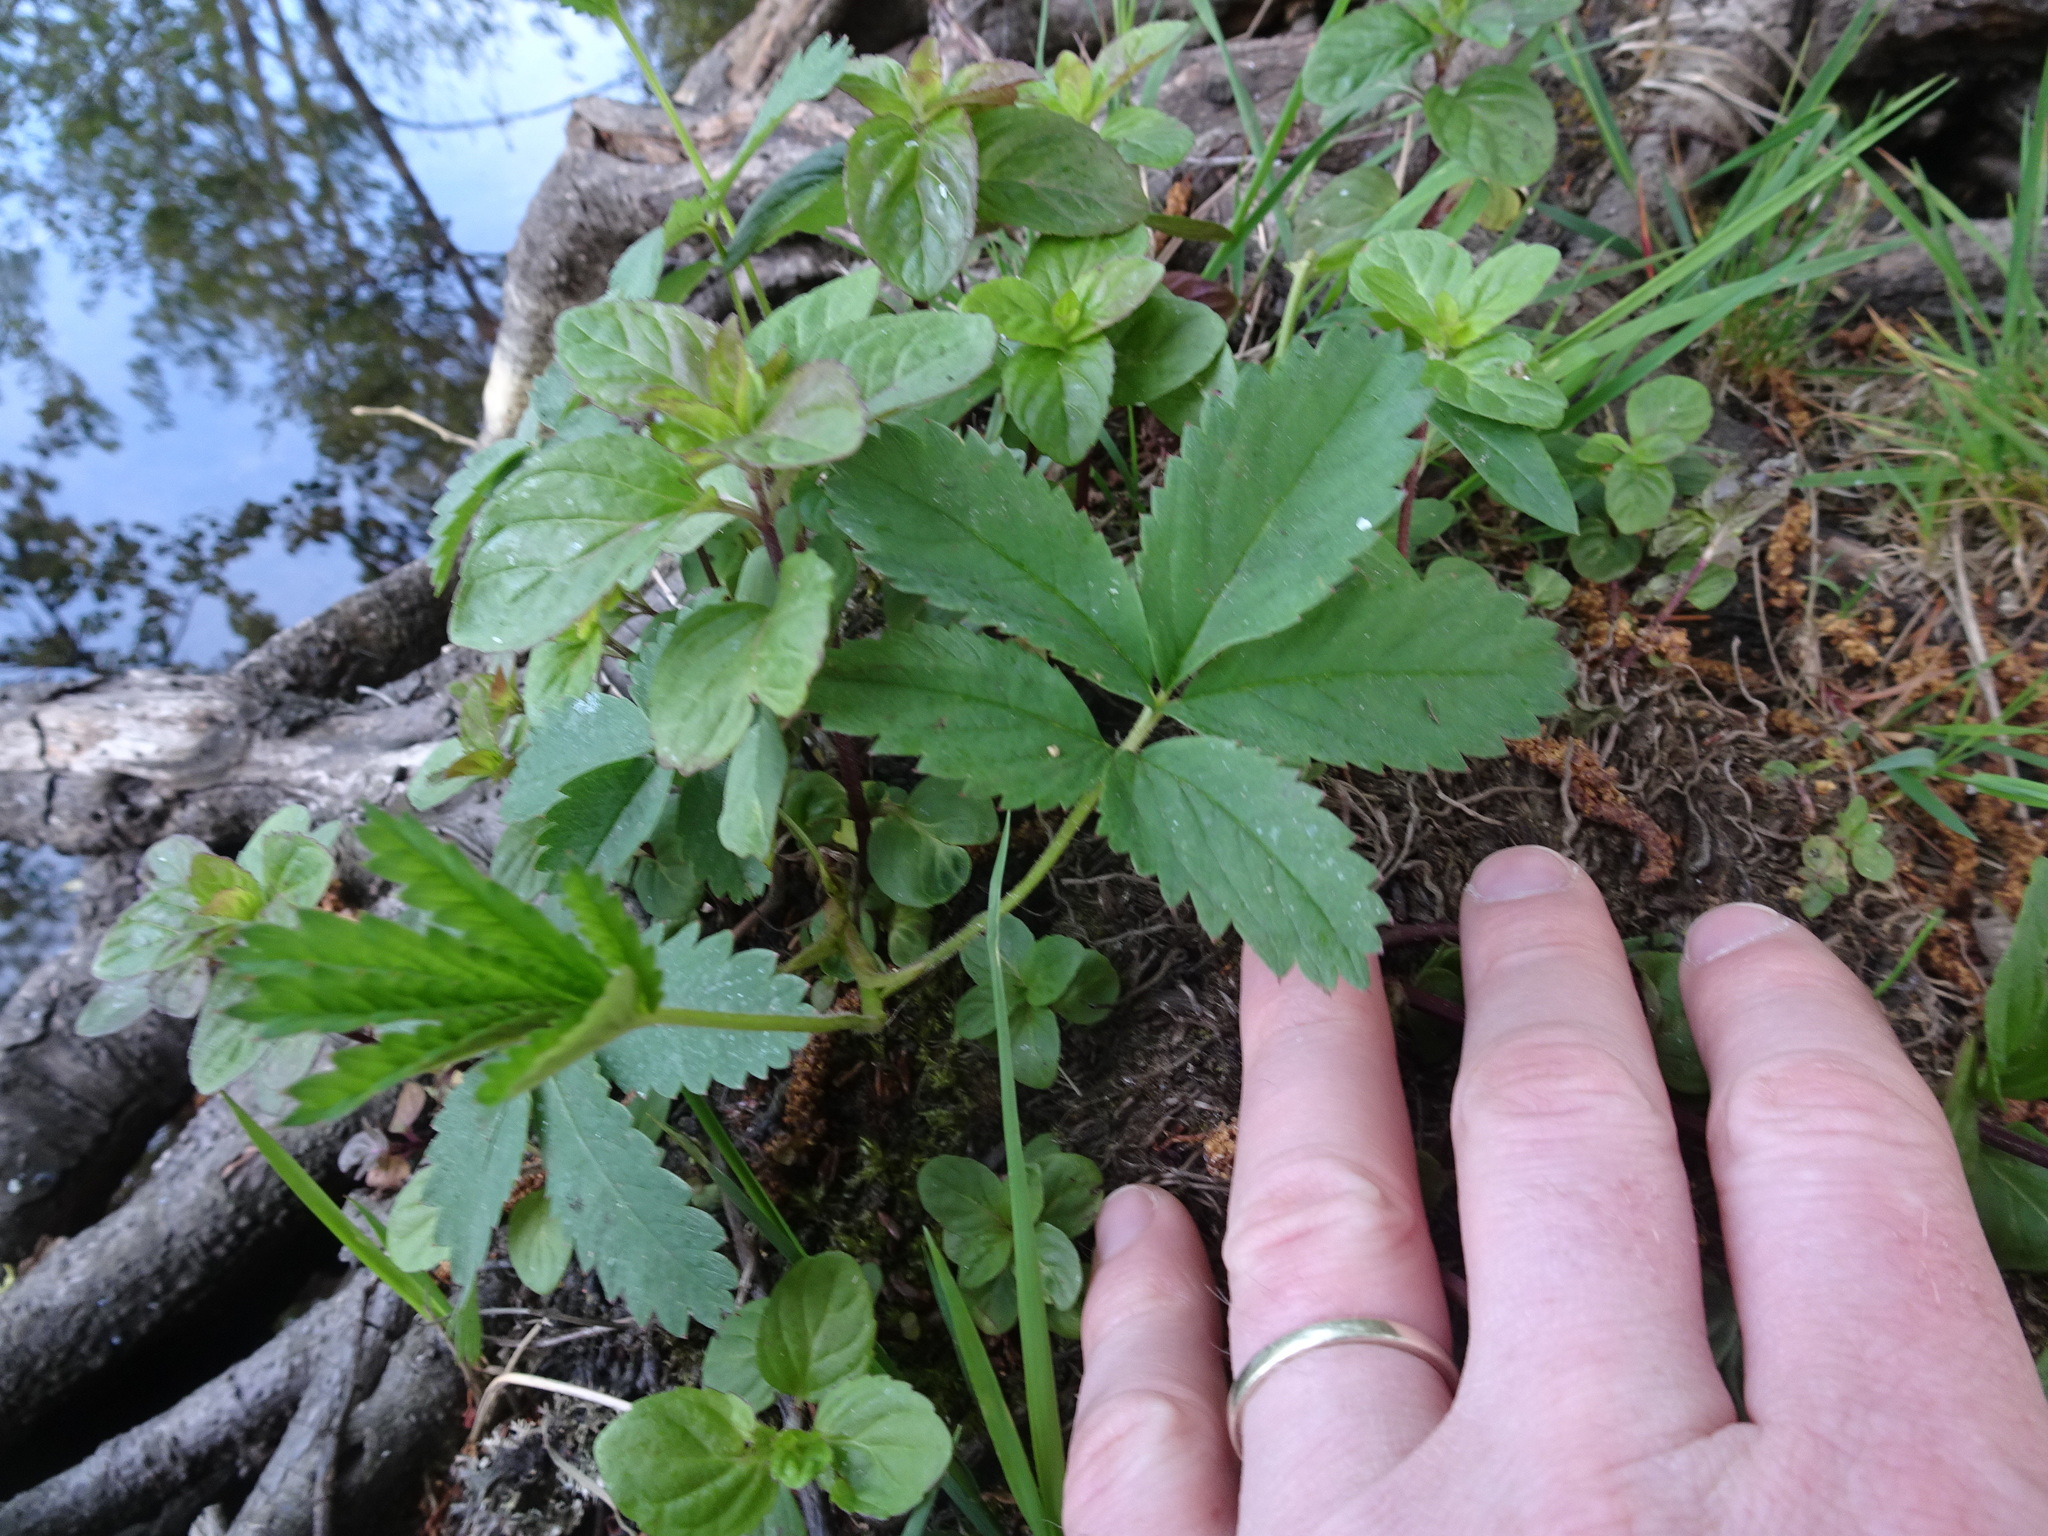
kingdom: Plantae
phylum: Tracheophyta
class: Magnoliopsida
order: Rosales
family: Rosaceae
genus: Comarum
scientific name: Comarum palustre
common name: Marsh cinquefoil
